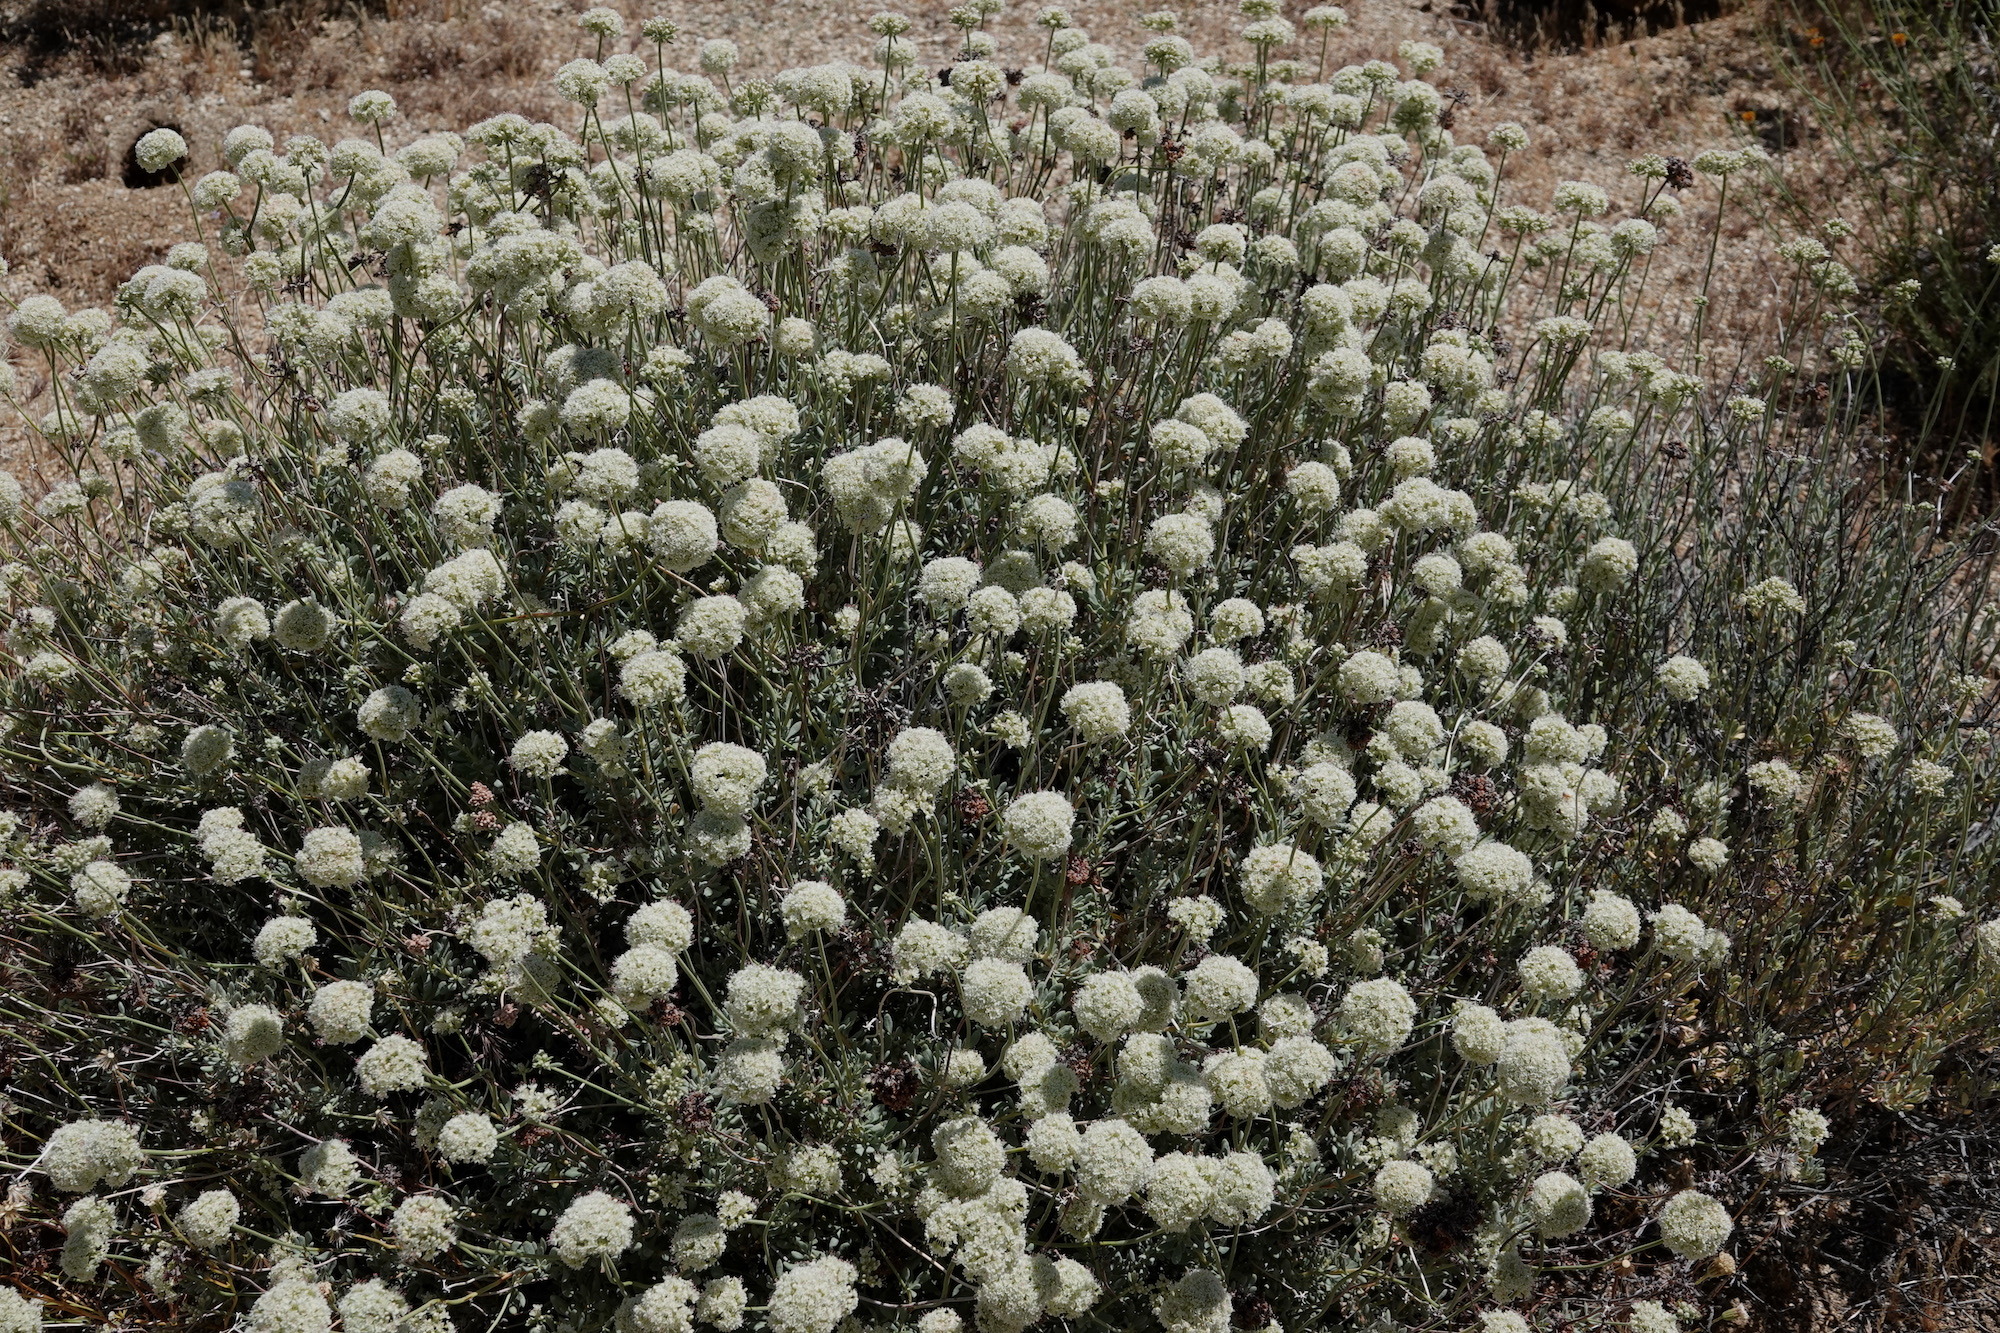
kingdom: Plantae
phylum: Tracheophyta
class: Magnoliopsida
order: Caryophyllales
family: Polygonaceae
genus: Eriogonum
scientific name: Eriogonum fasciculatum
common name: California wild buckwheat
